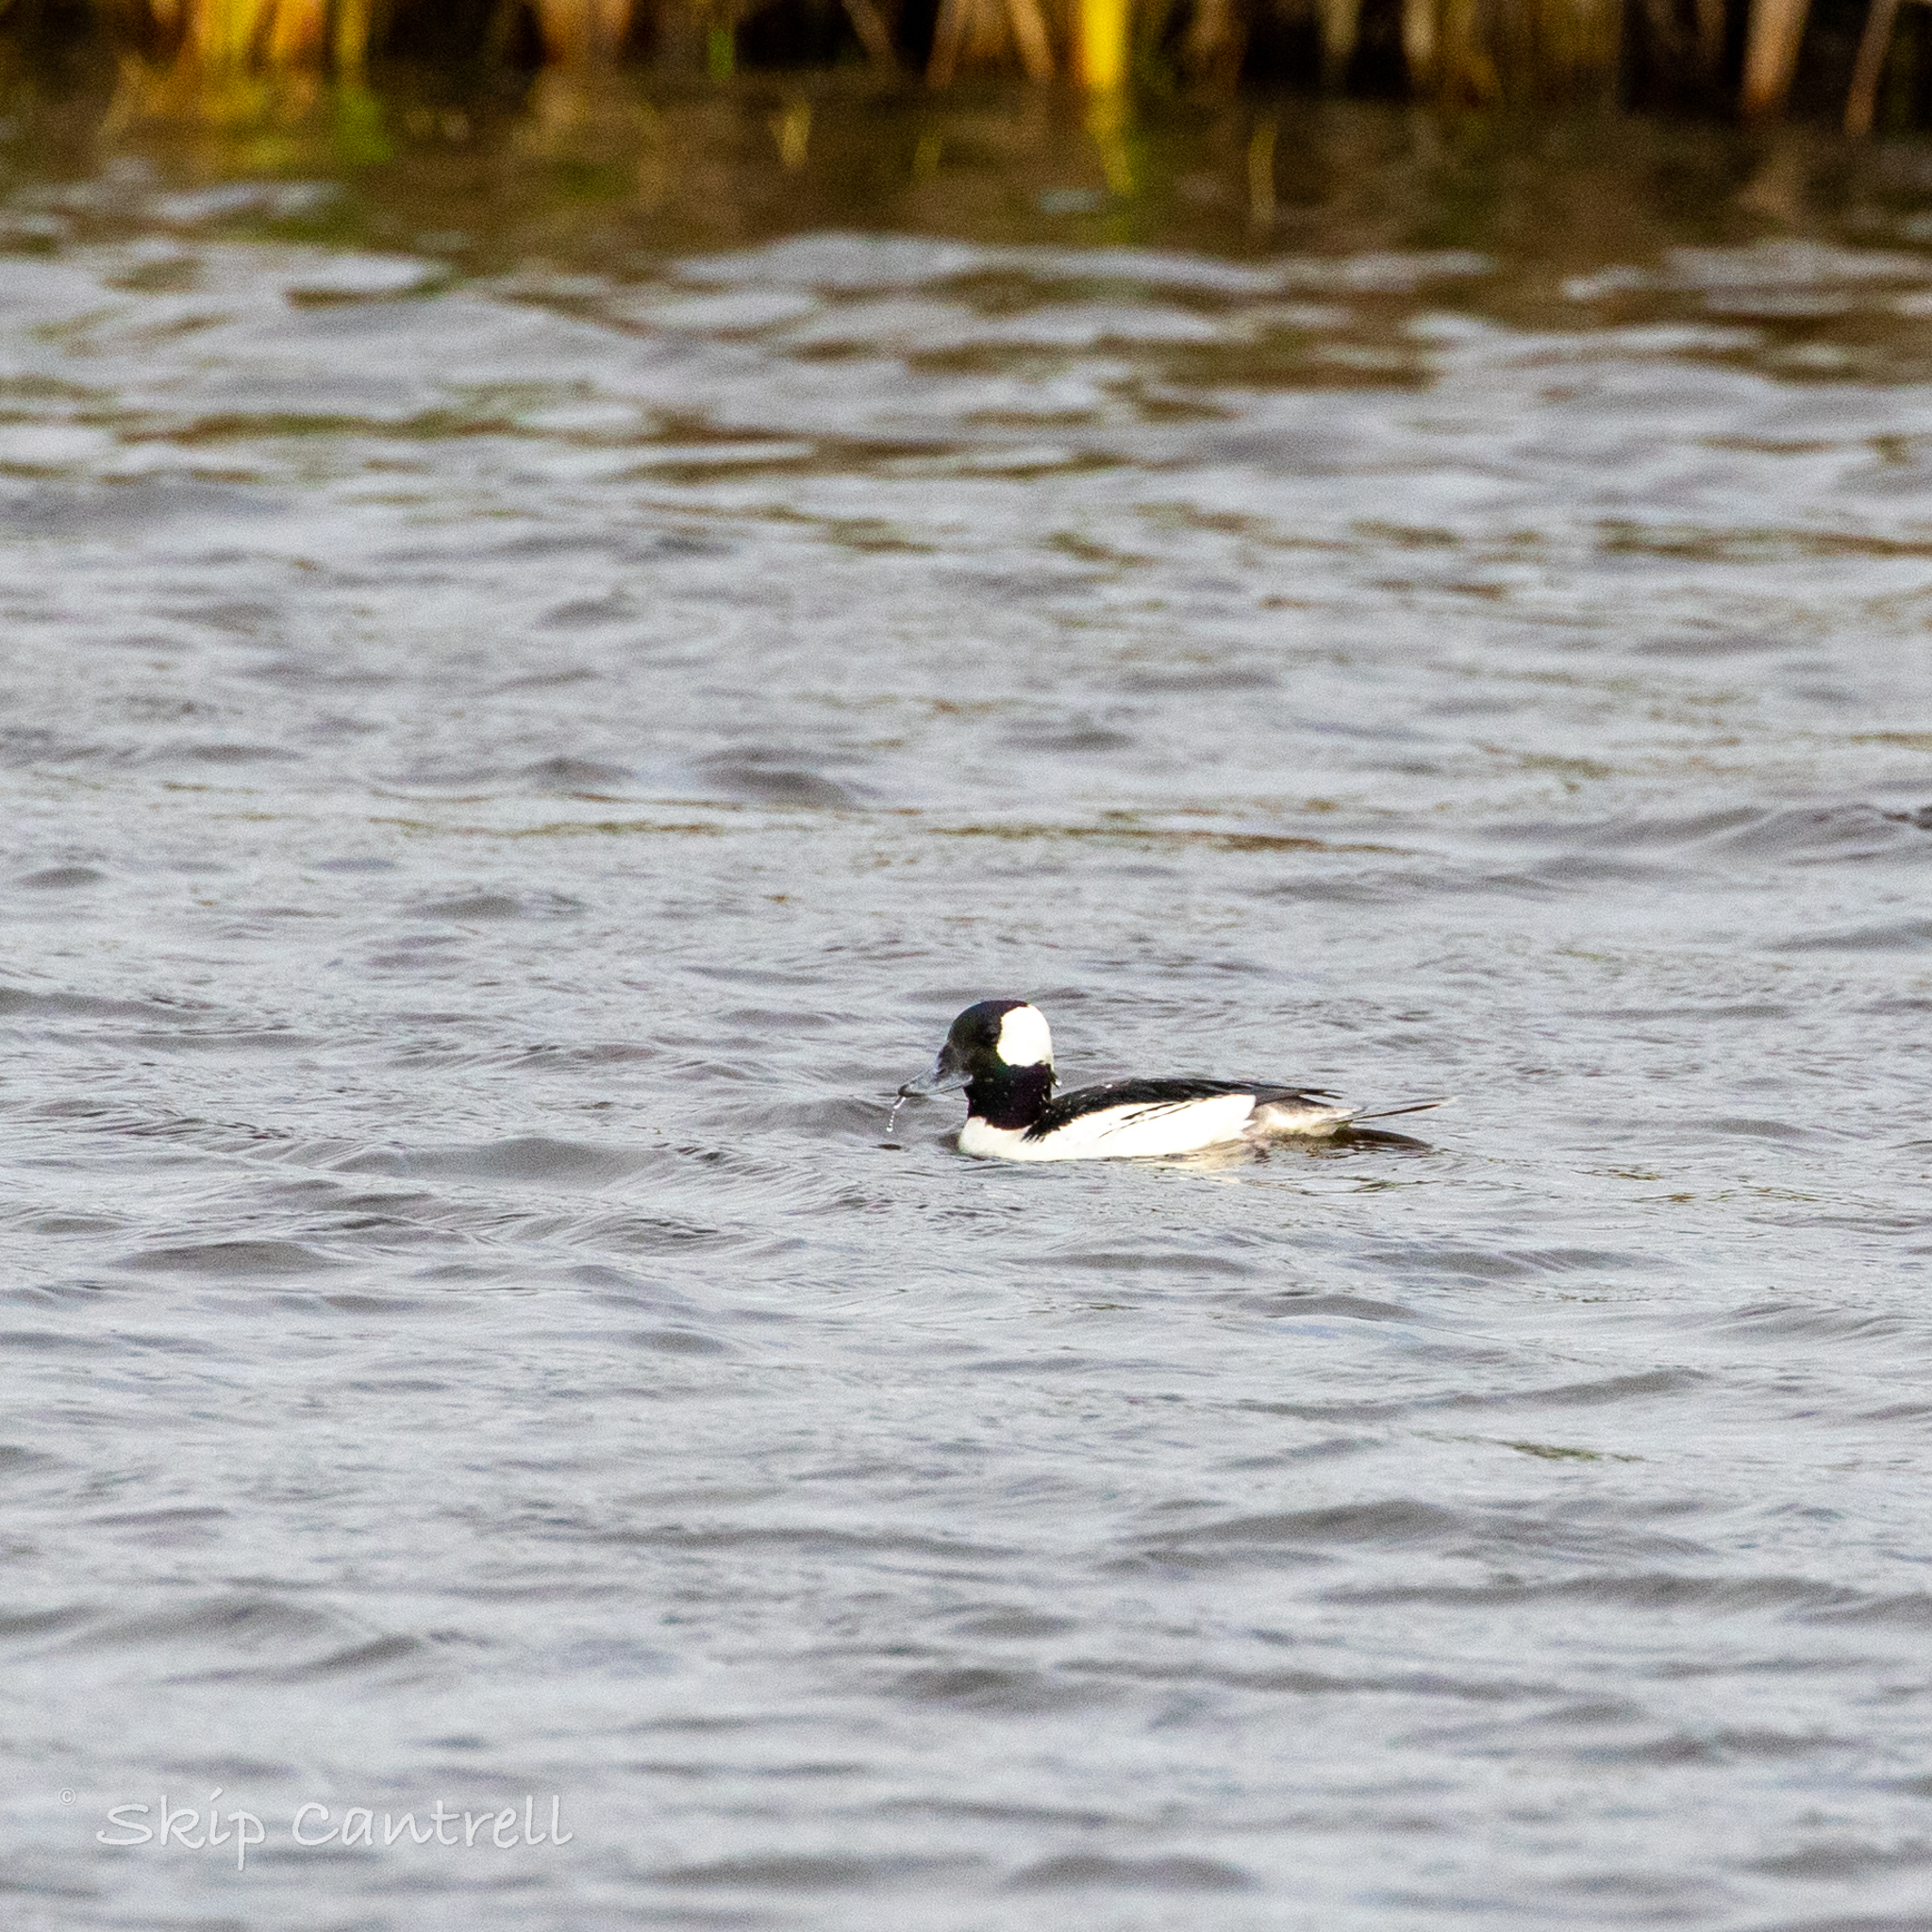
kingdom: Animalia
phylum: Chordata
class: Aves
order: Anseriformes
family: Anatidae
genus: Bucephala
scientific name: Bucephala albeola
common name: Bufflehead
